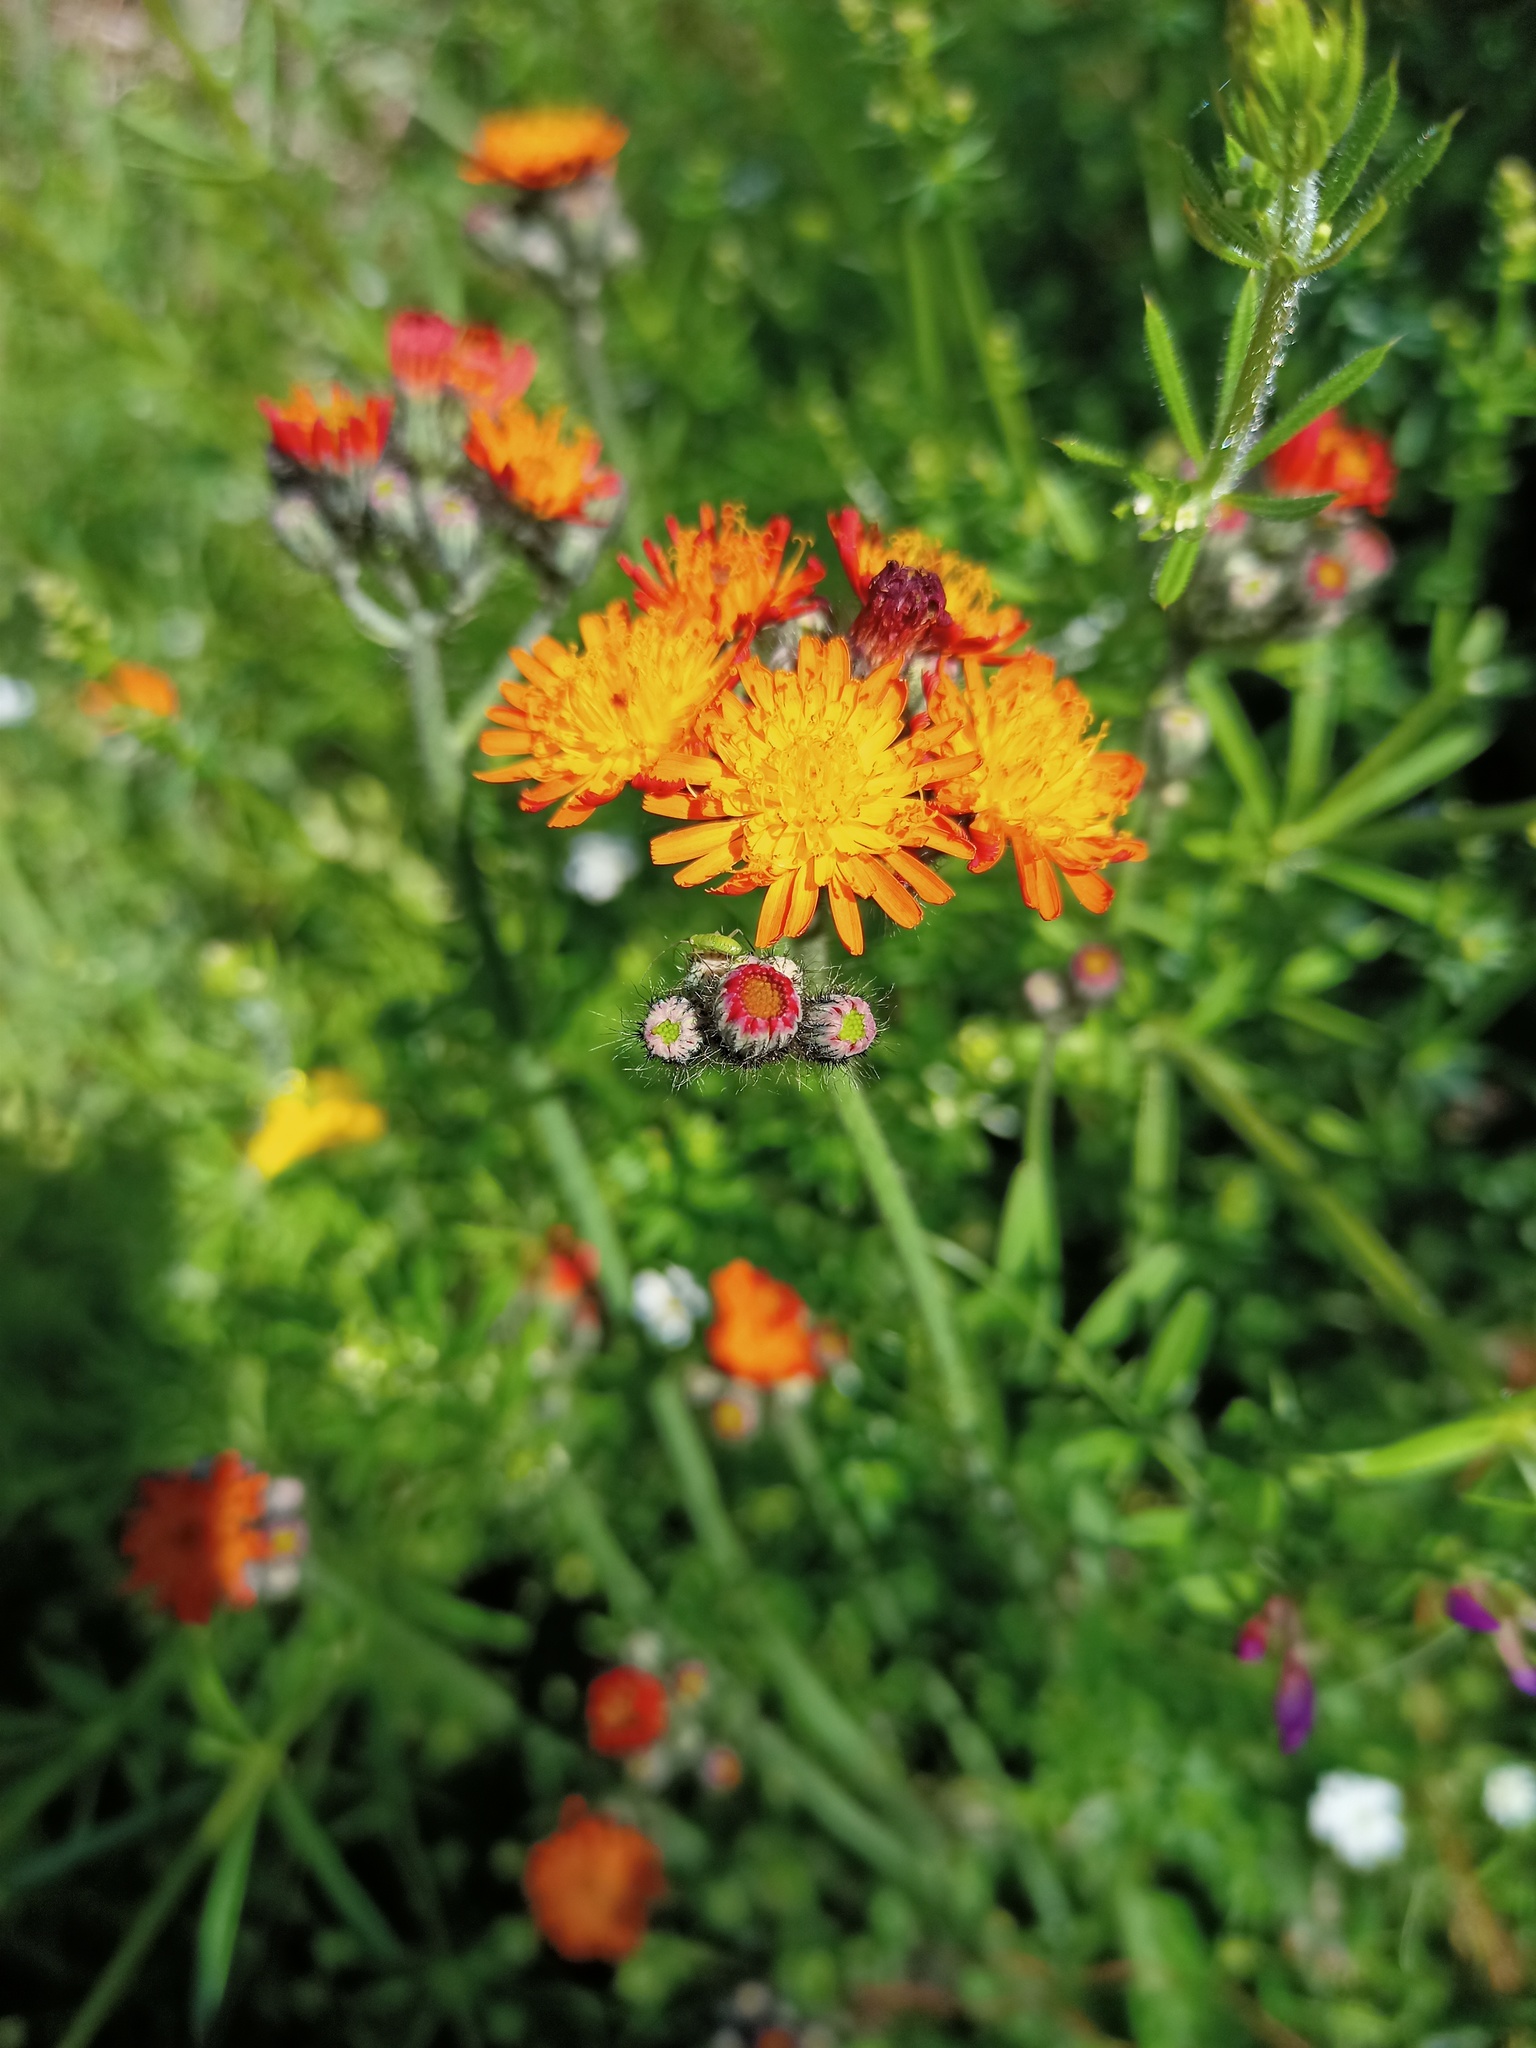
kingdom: Plantae
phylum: Tracheophyta
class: Magnoliopsida
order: Asterales
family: Asteraceae
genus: Pilosella
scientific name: Pilosella aurantiaca
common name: Fox-and-cubs
